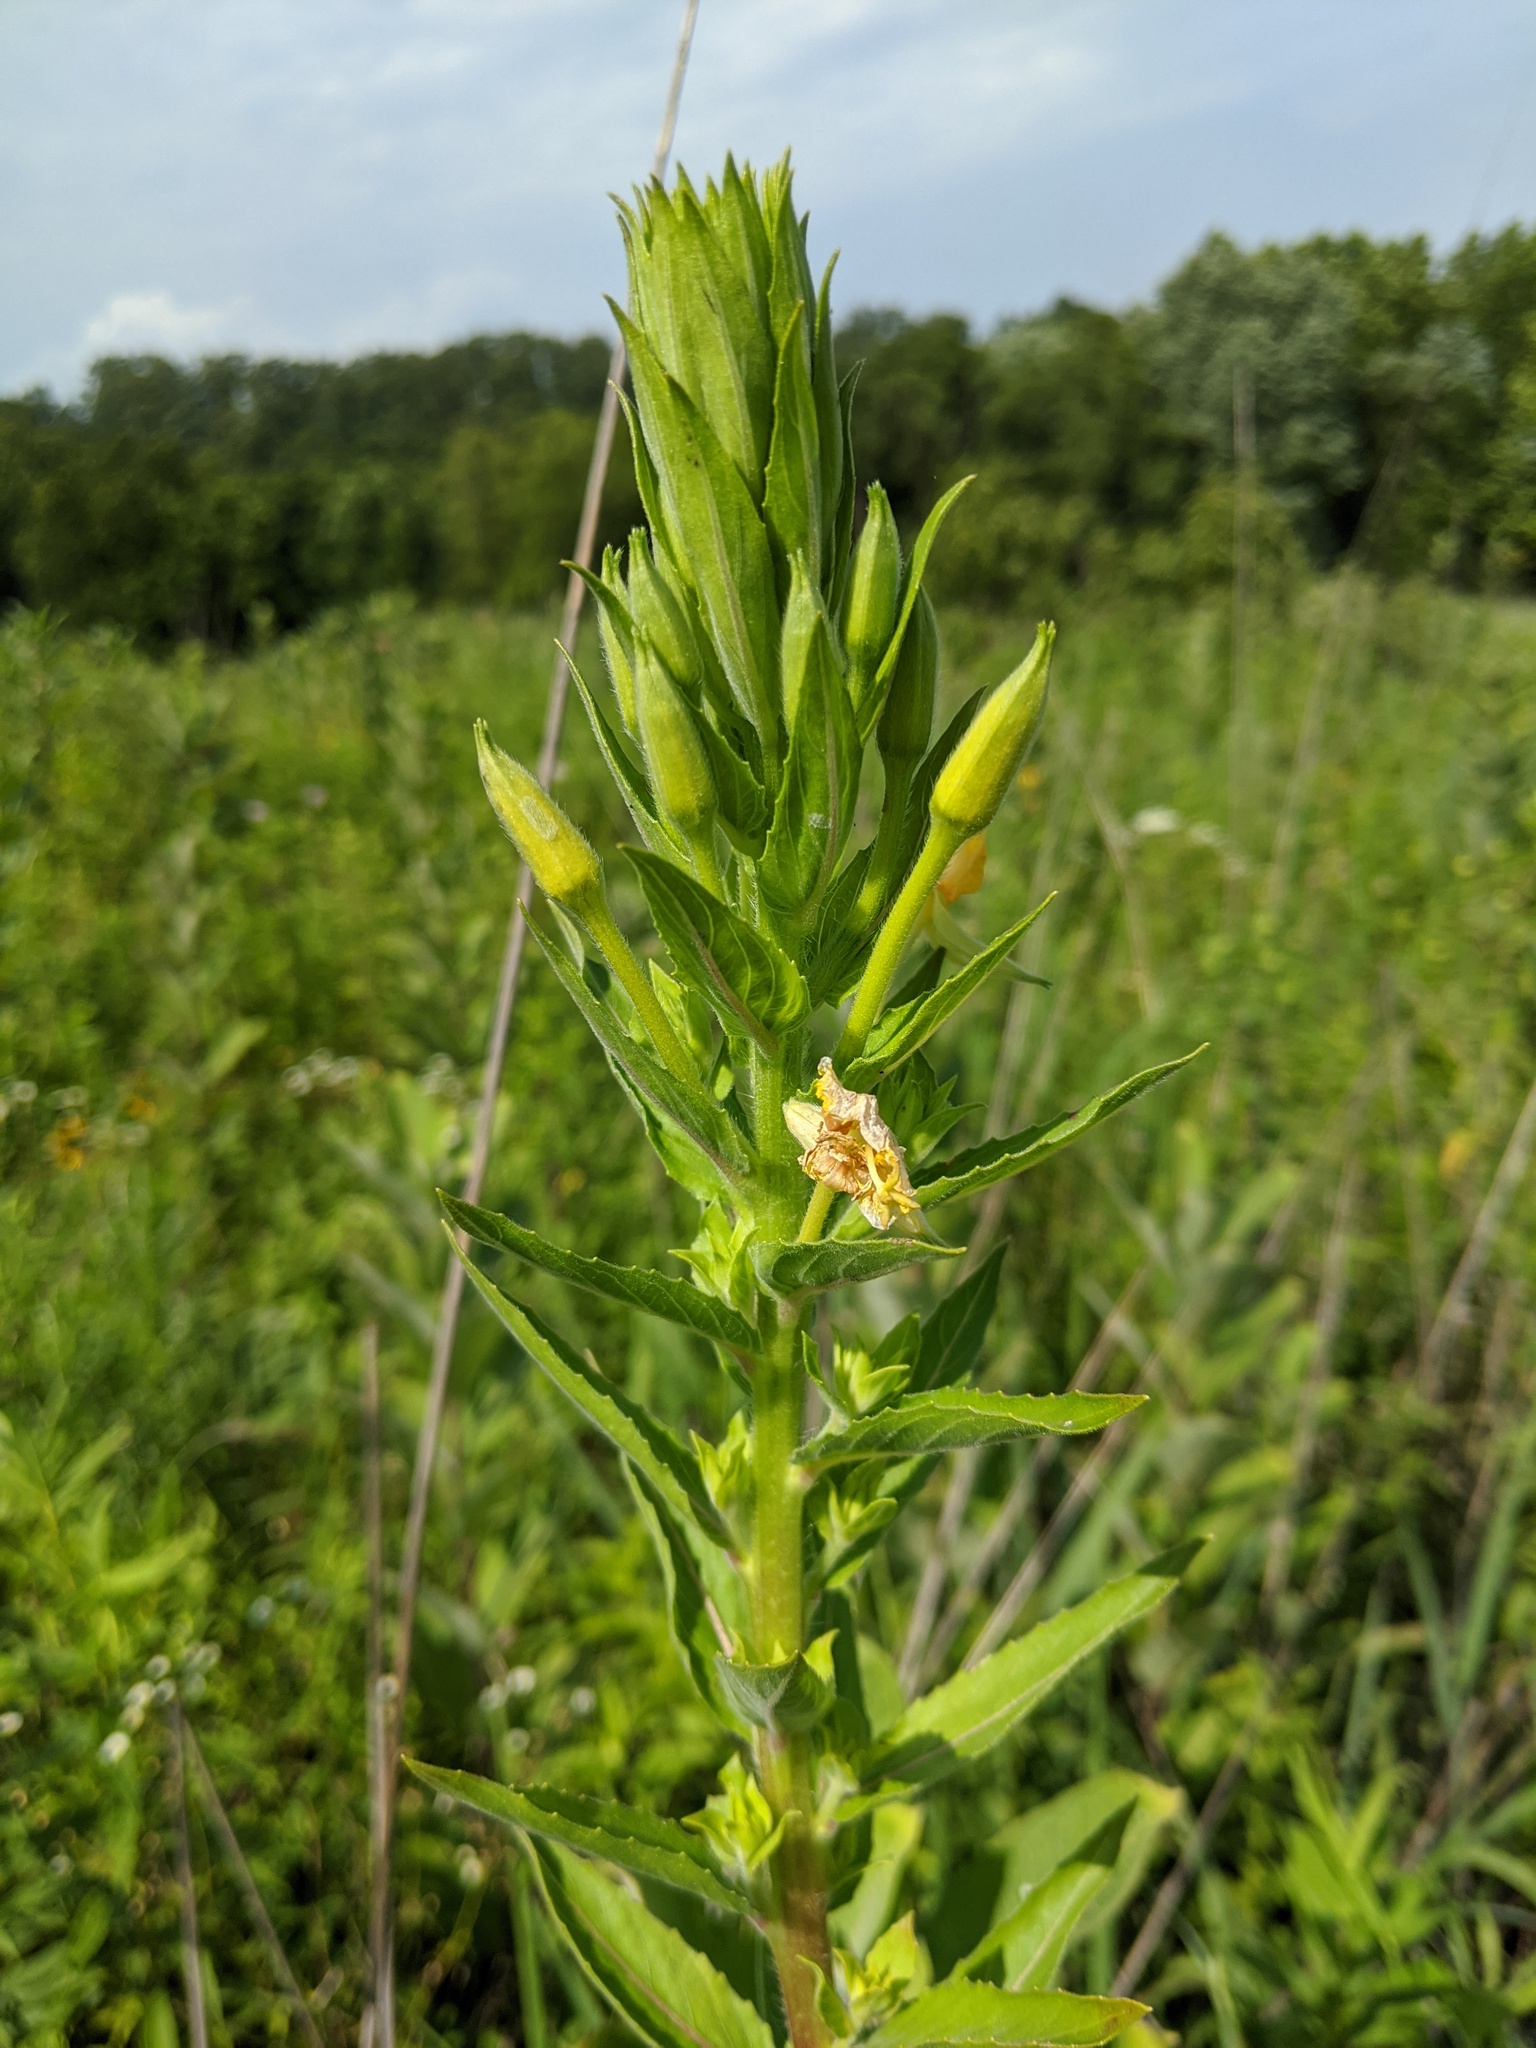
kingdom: Plantae
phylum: Tracheophyta
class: Magnoliopsida
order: Myrtales
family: Onagraceae
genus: Oenothera
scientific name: Oenothera biennis
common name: Common evening-primrose
